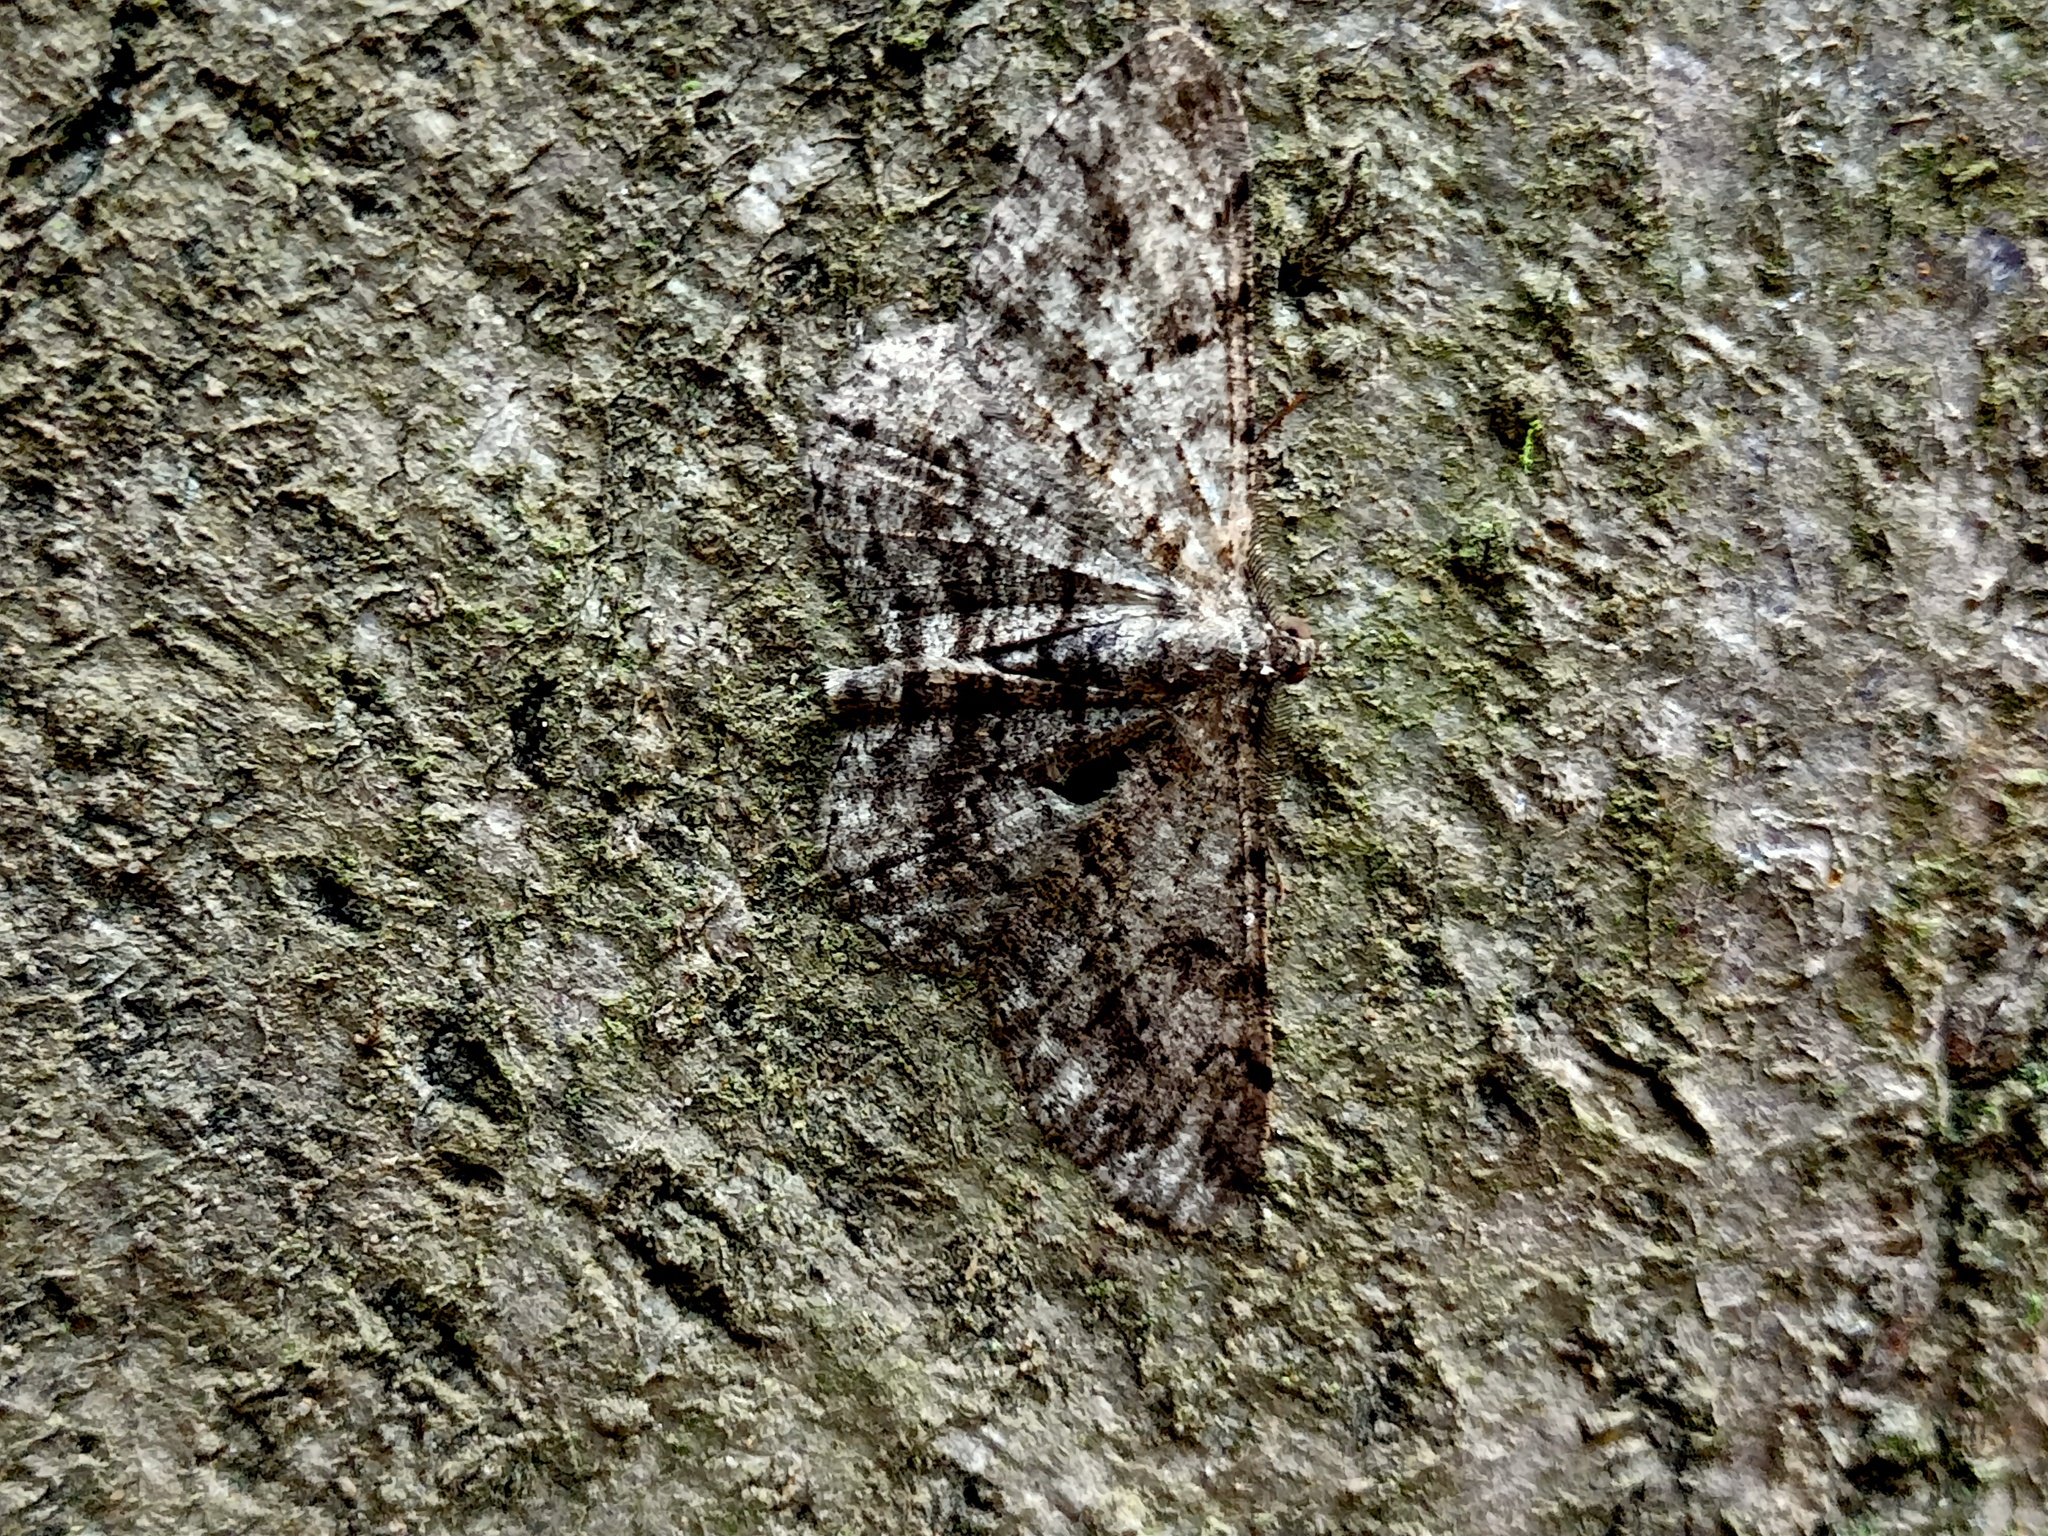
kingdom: Animalia
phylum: Arthropoda
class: Insecta
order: Lepidoptera
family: Geometridae
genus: Peribatodes
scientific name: Peribatodes rhomboidaria
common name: Willow beauty
